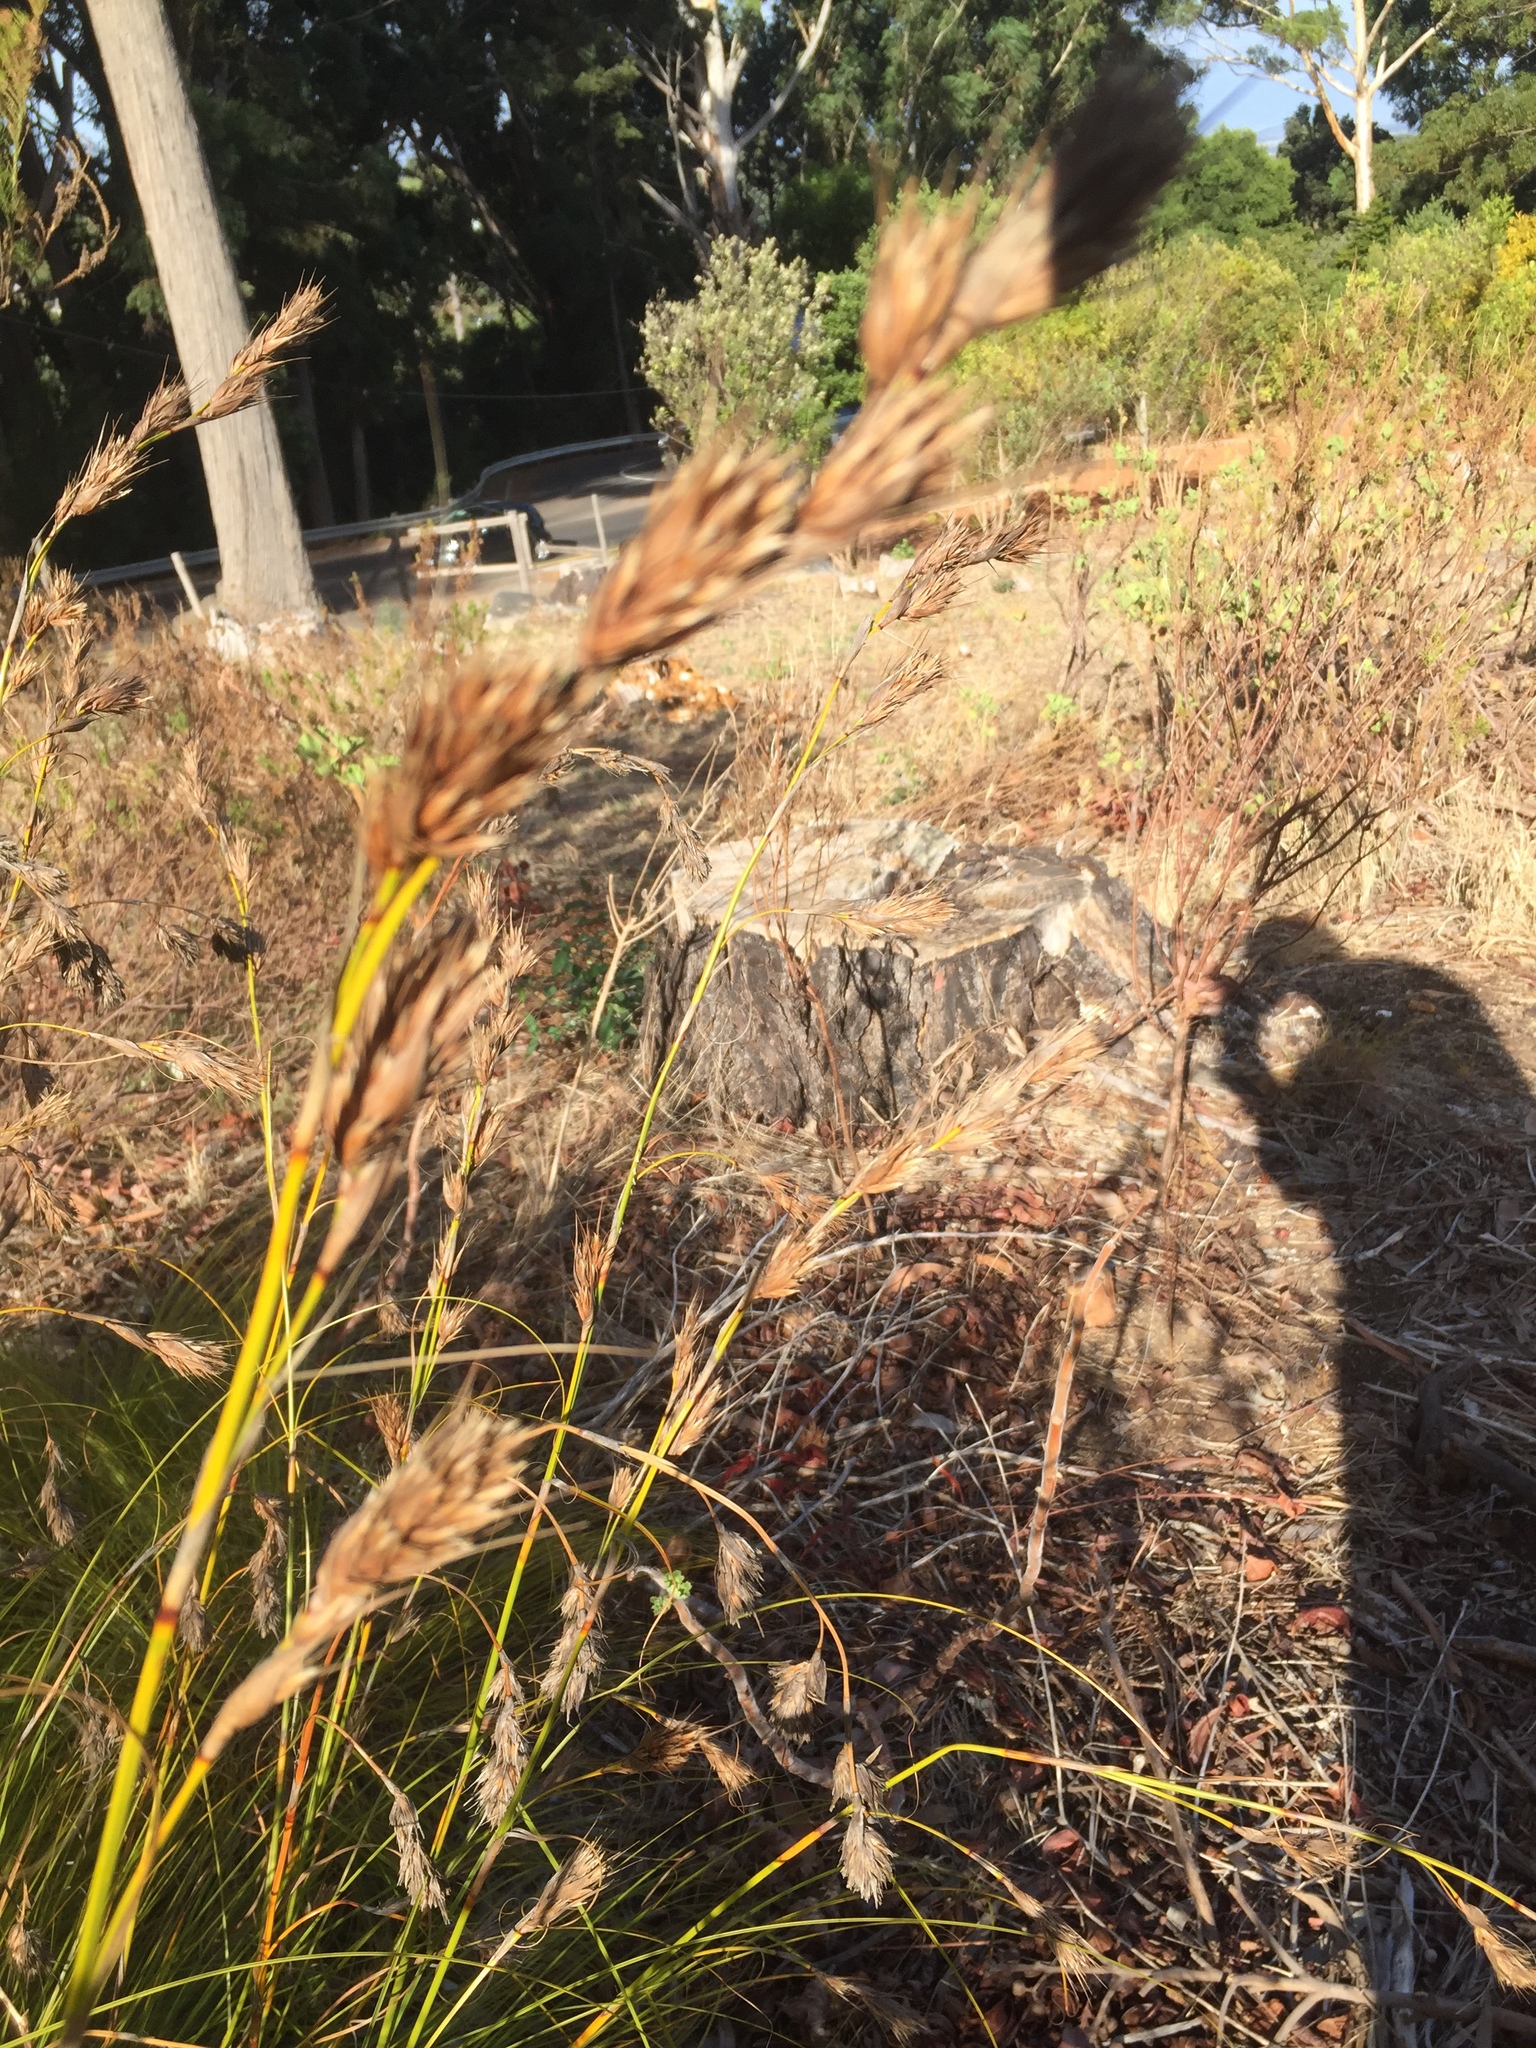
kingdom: Plantae
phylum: Tracheophyta
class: Liliopsida
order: Poales
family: Cyperaceae
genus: Tetraria
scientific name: Tetraria bromoides
